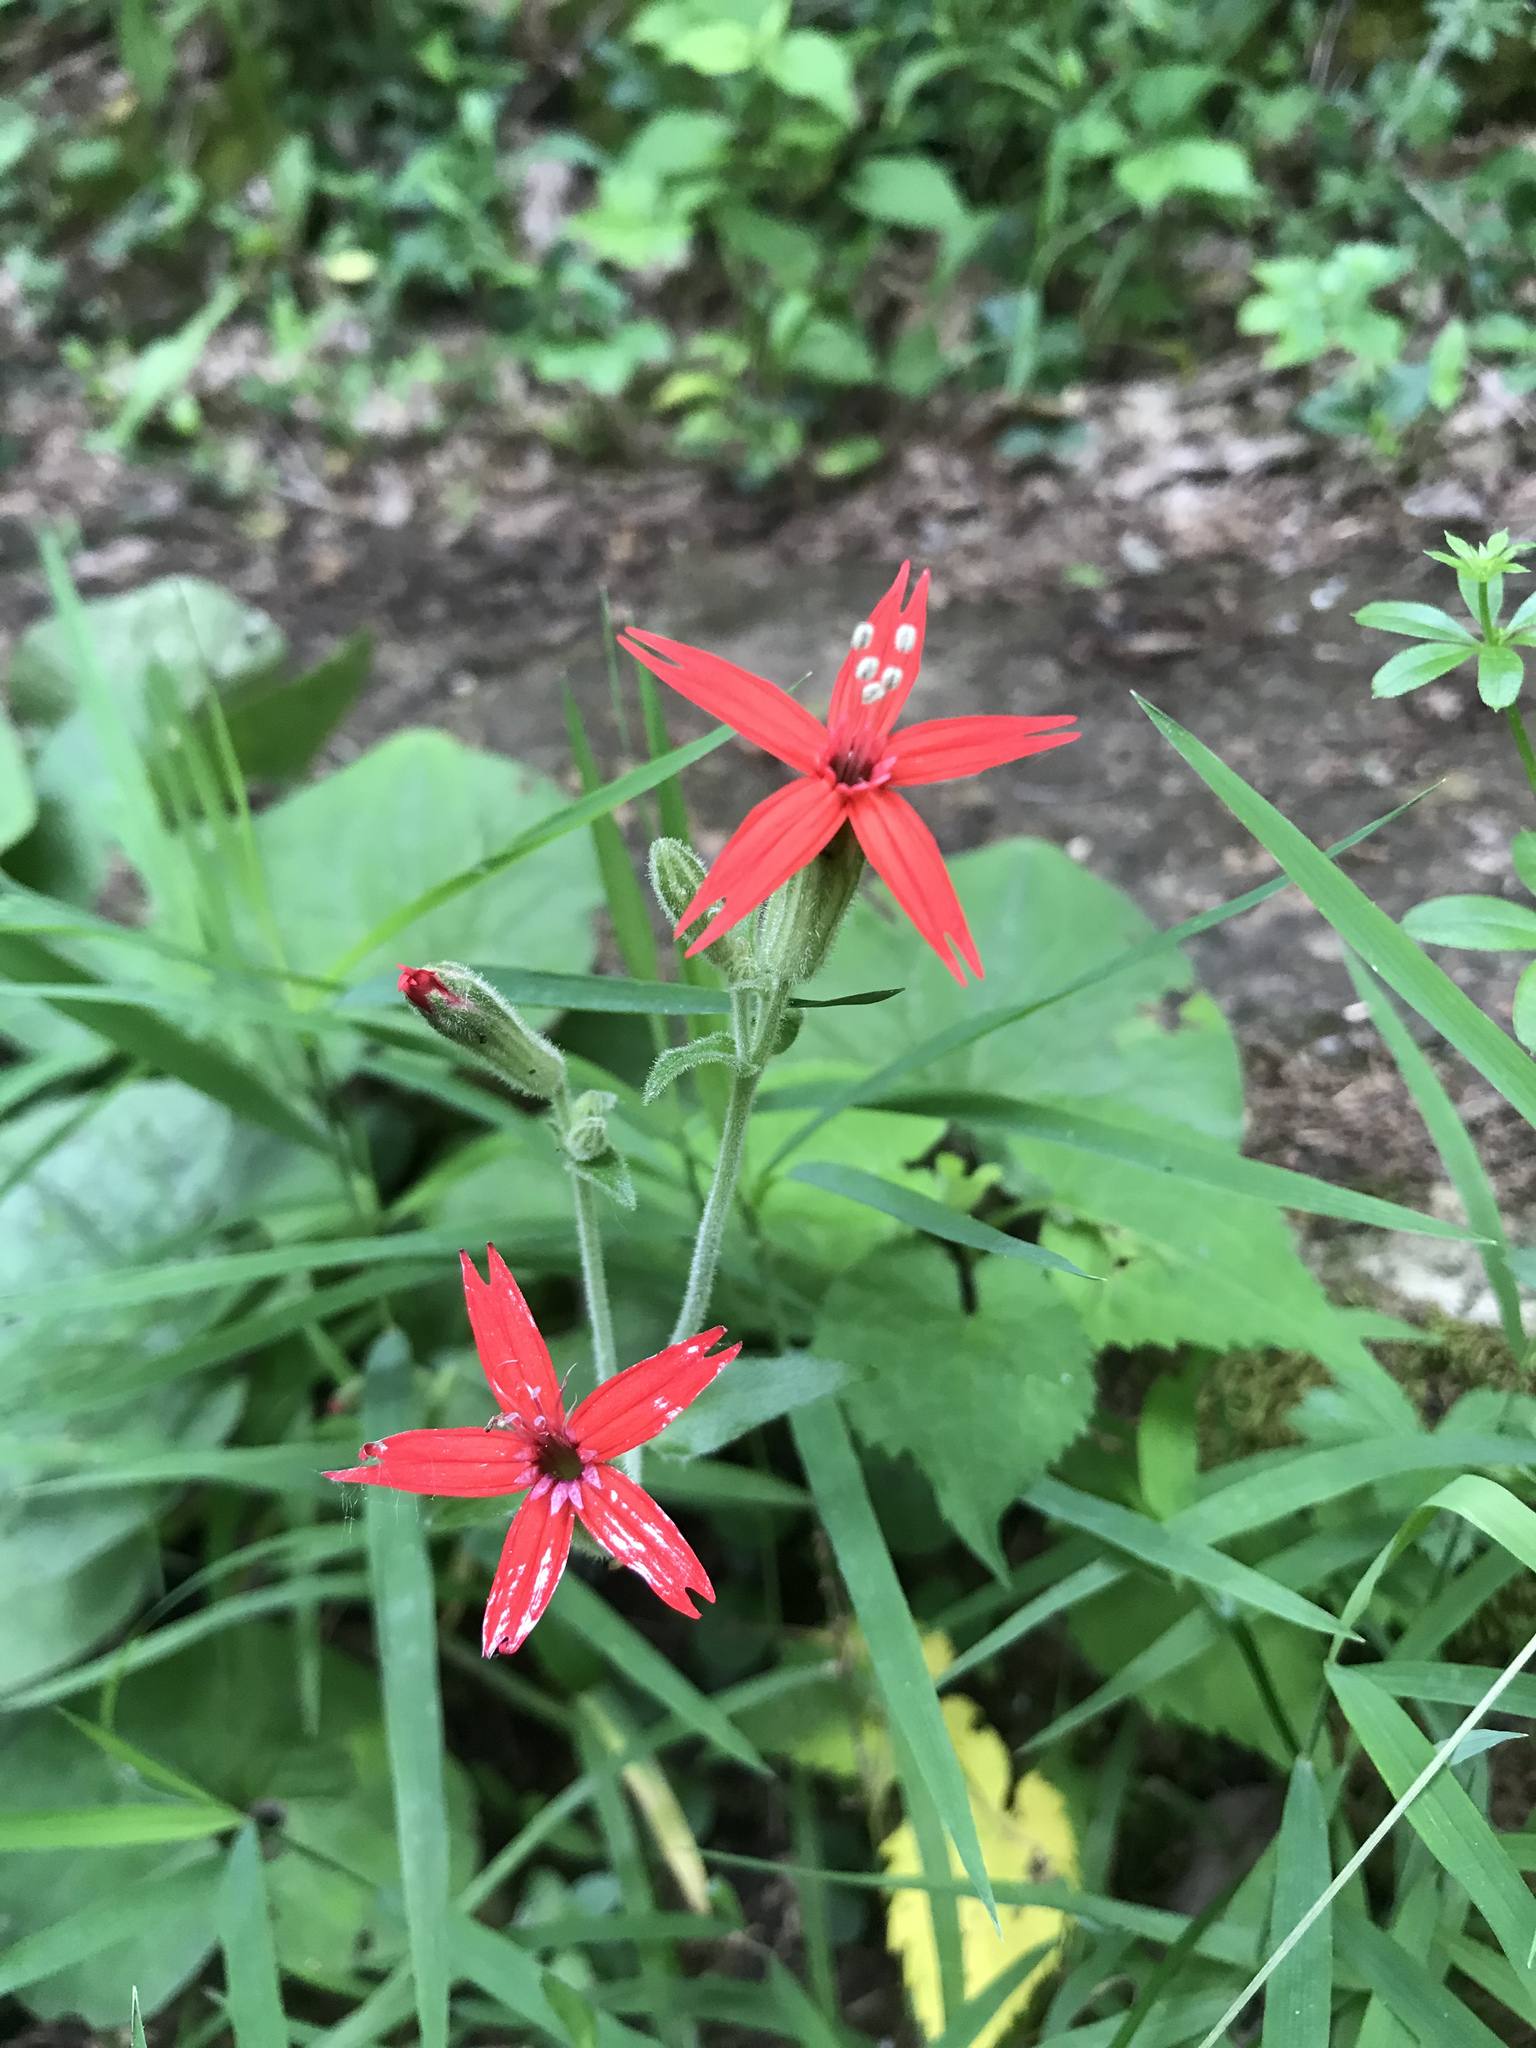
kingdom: Plantae
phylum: Tracheophyta
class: Magnoliopsida
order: Caryophyllales
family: Caryophyllaceae
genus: Silene
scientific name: Silene virginica
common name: Fire-pink
